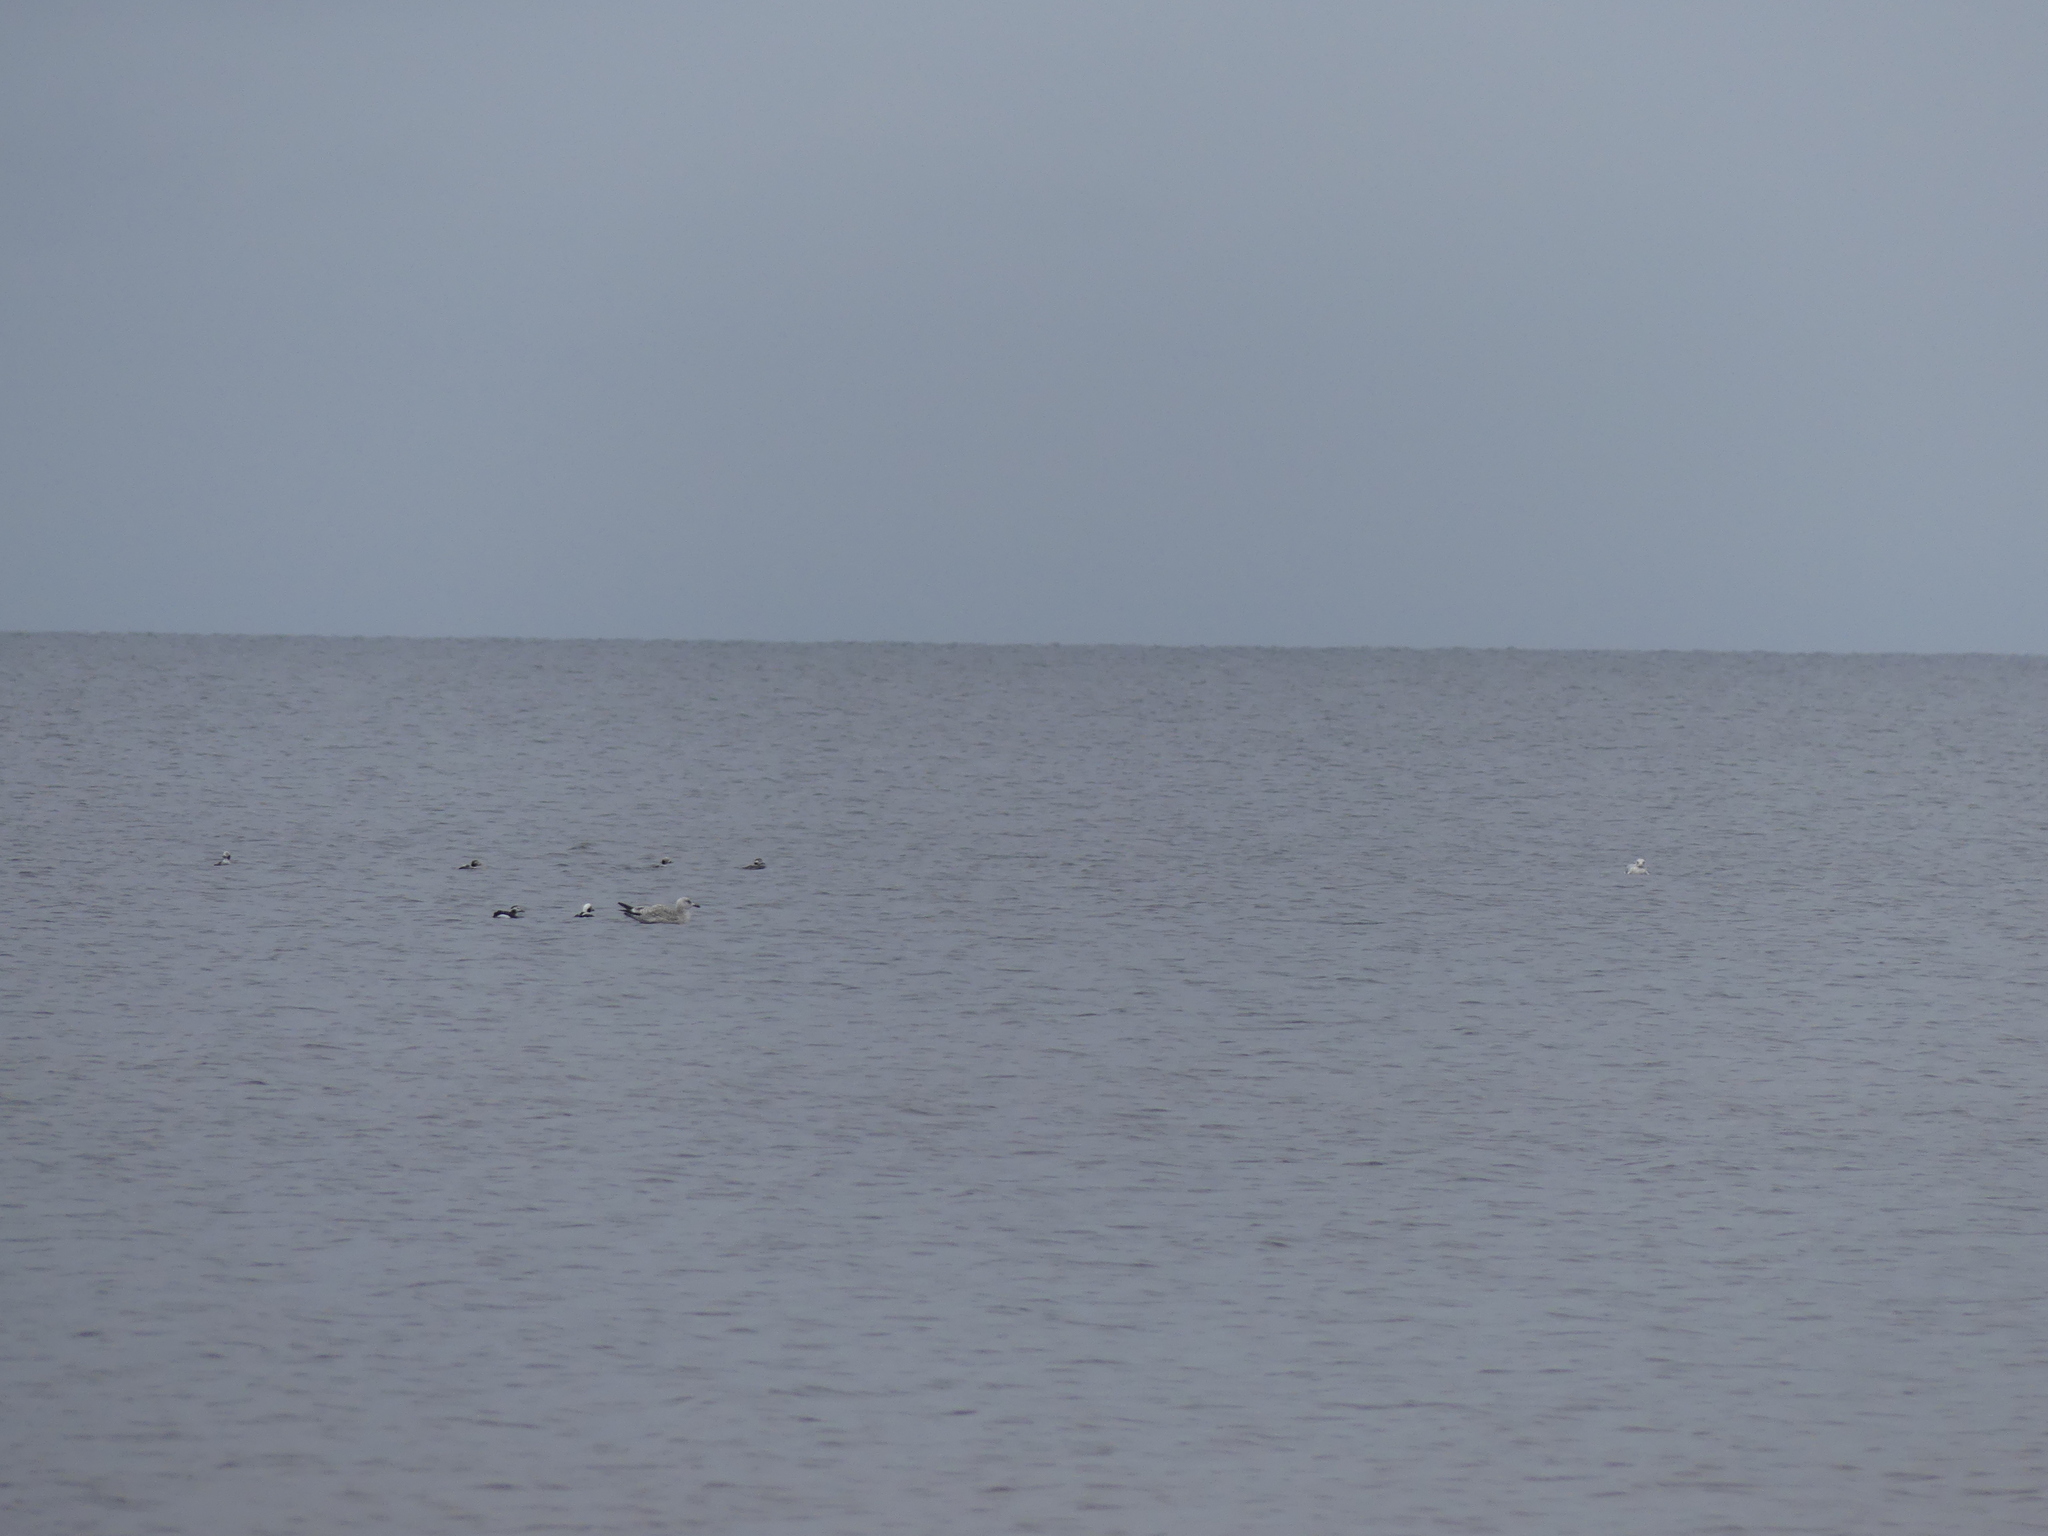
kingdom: Animalia
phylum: Chordata
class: Aves
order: Anseriformes
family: Anatidae
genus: Clangula
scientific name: Clangula hyemalis
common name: Long-tailed duck
